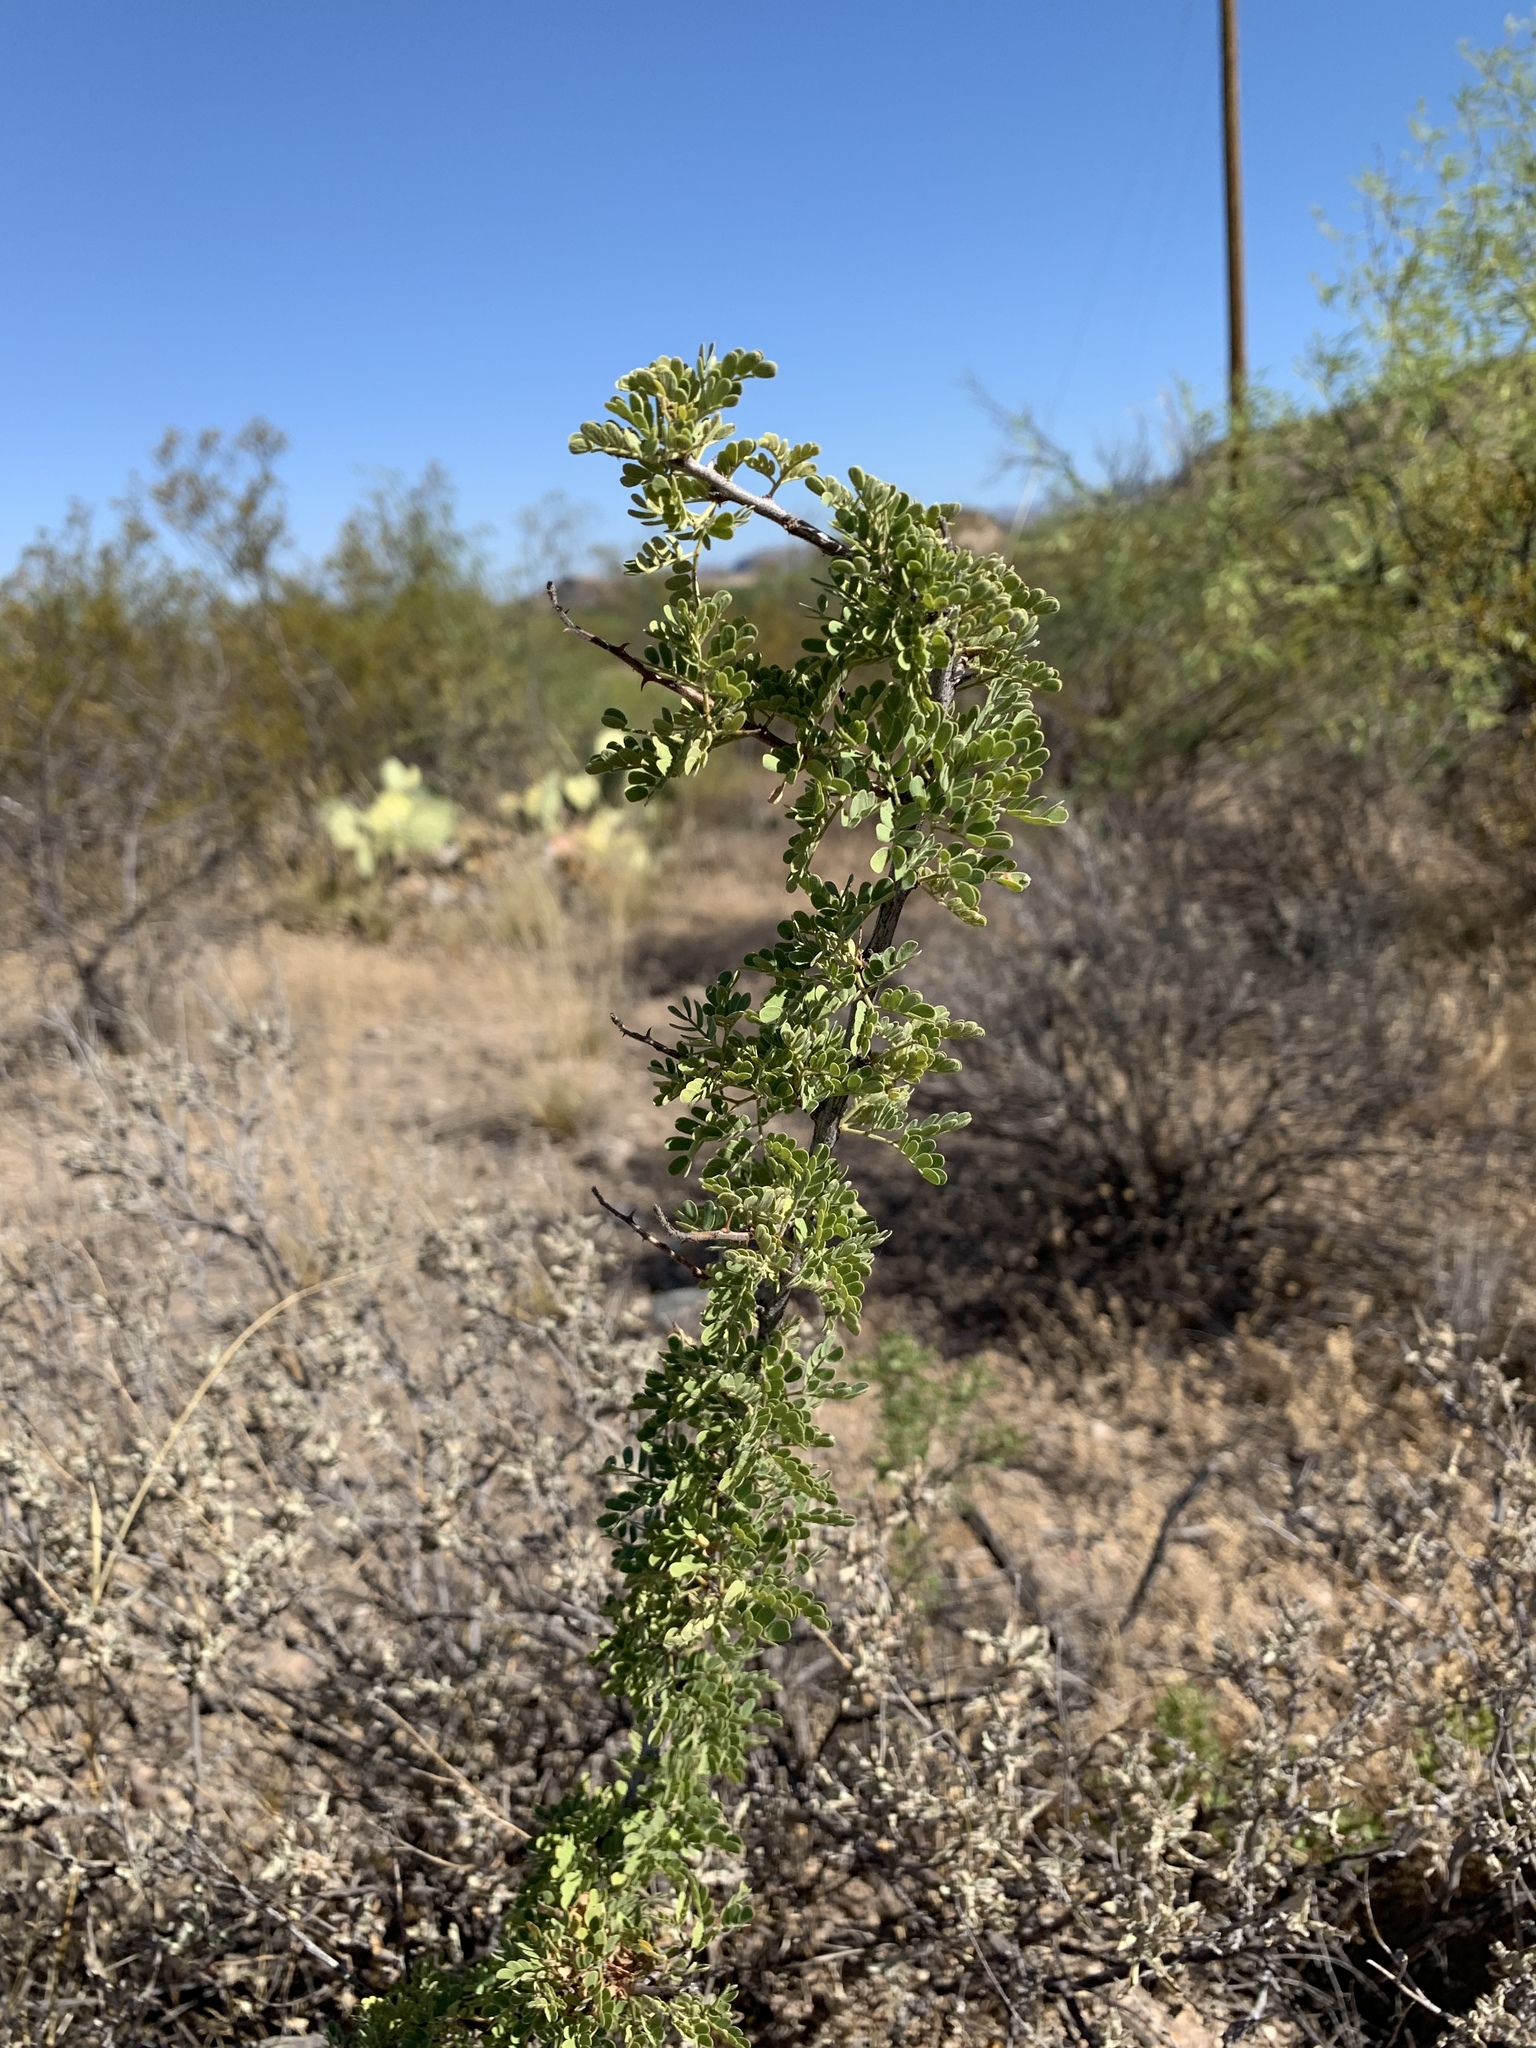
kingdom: Plantae
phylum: Tracheophyta
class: Magnoliopsida
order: Fabales
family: Fabaceae
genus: Senegalia
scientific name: Senegalia greggii
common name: Texas-mimosa
